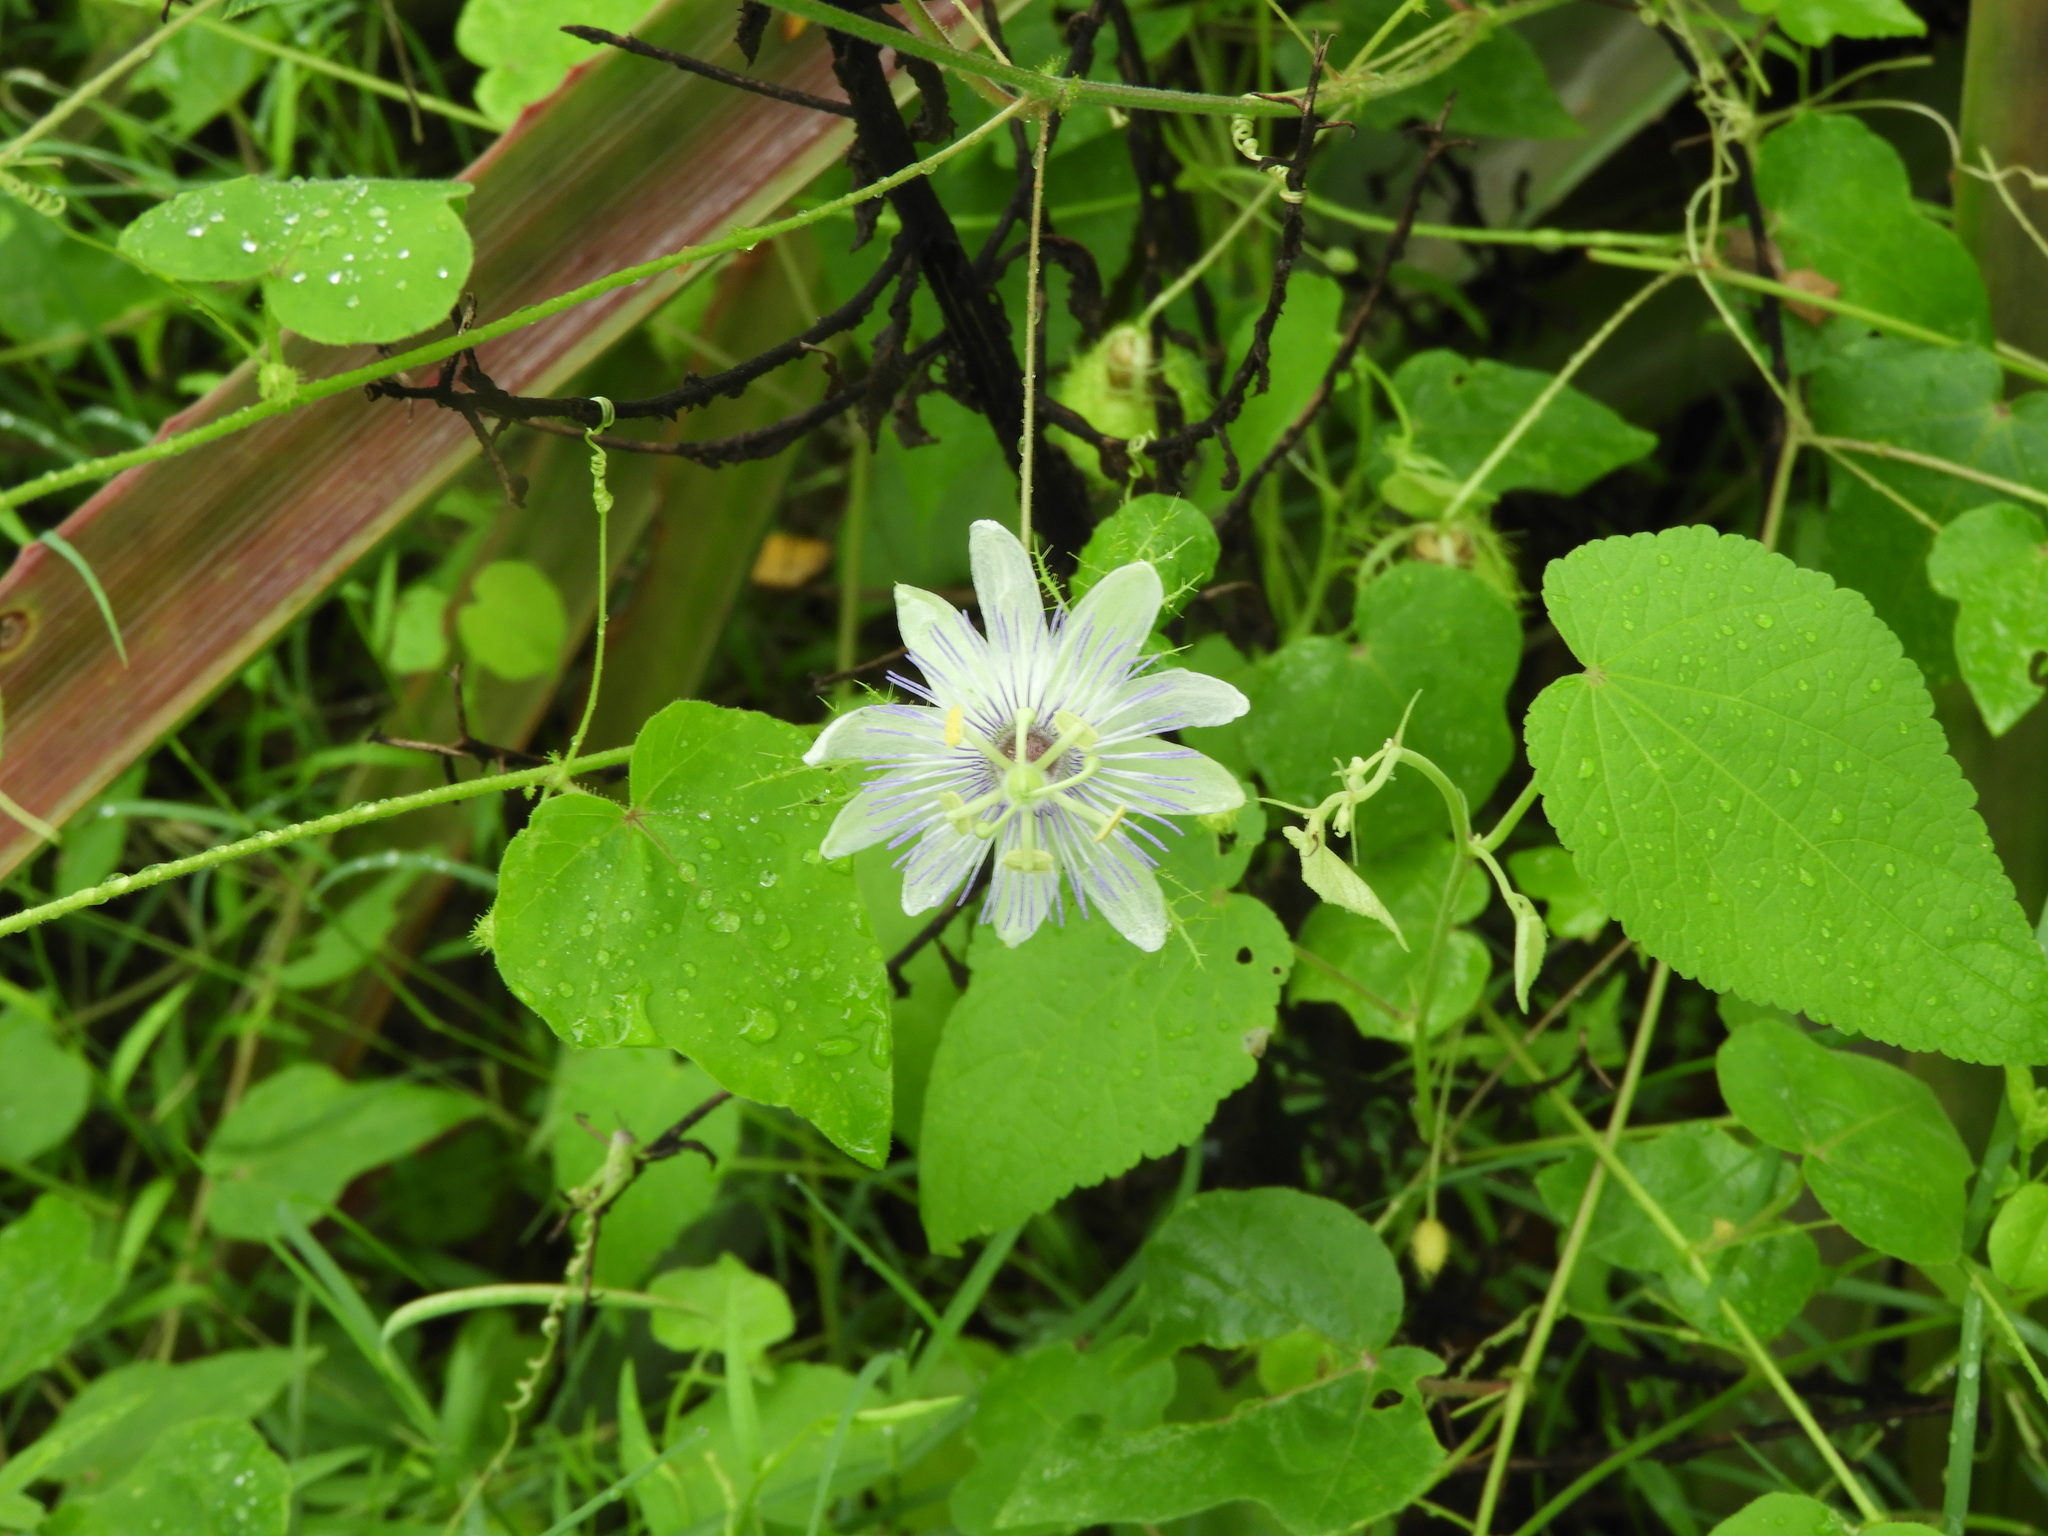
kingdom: Plantae
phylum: Tracheophyta
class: Magnoliopsida
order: Malpighiales
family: Passifloraceae
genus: Passiflora
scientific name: Passiflora foetida
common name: Fetid passionflower
